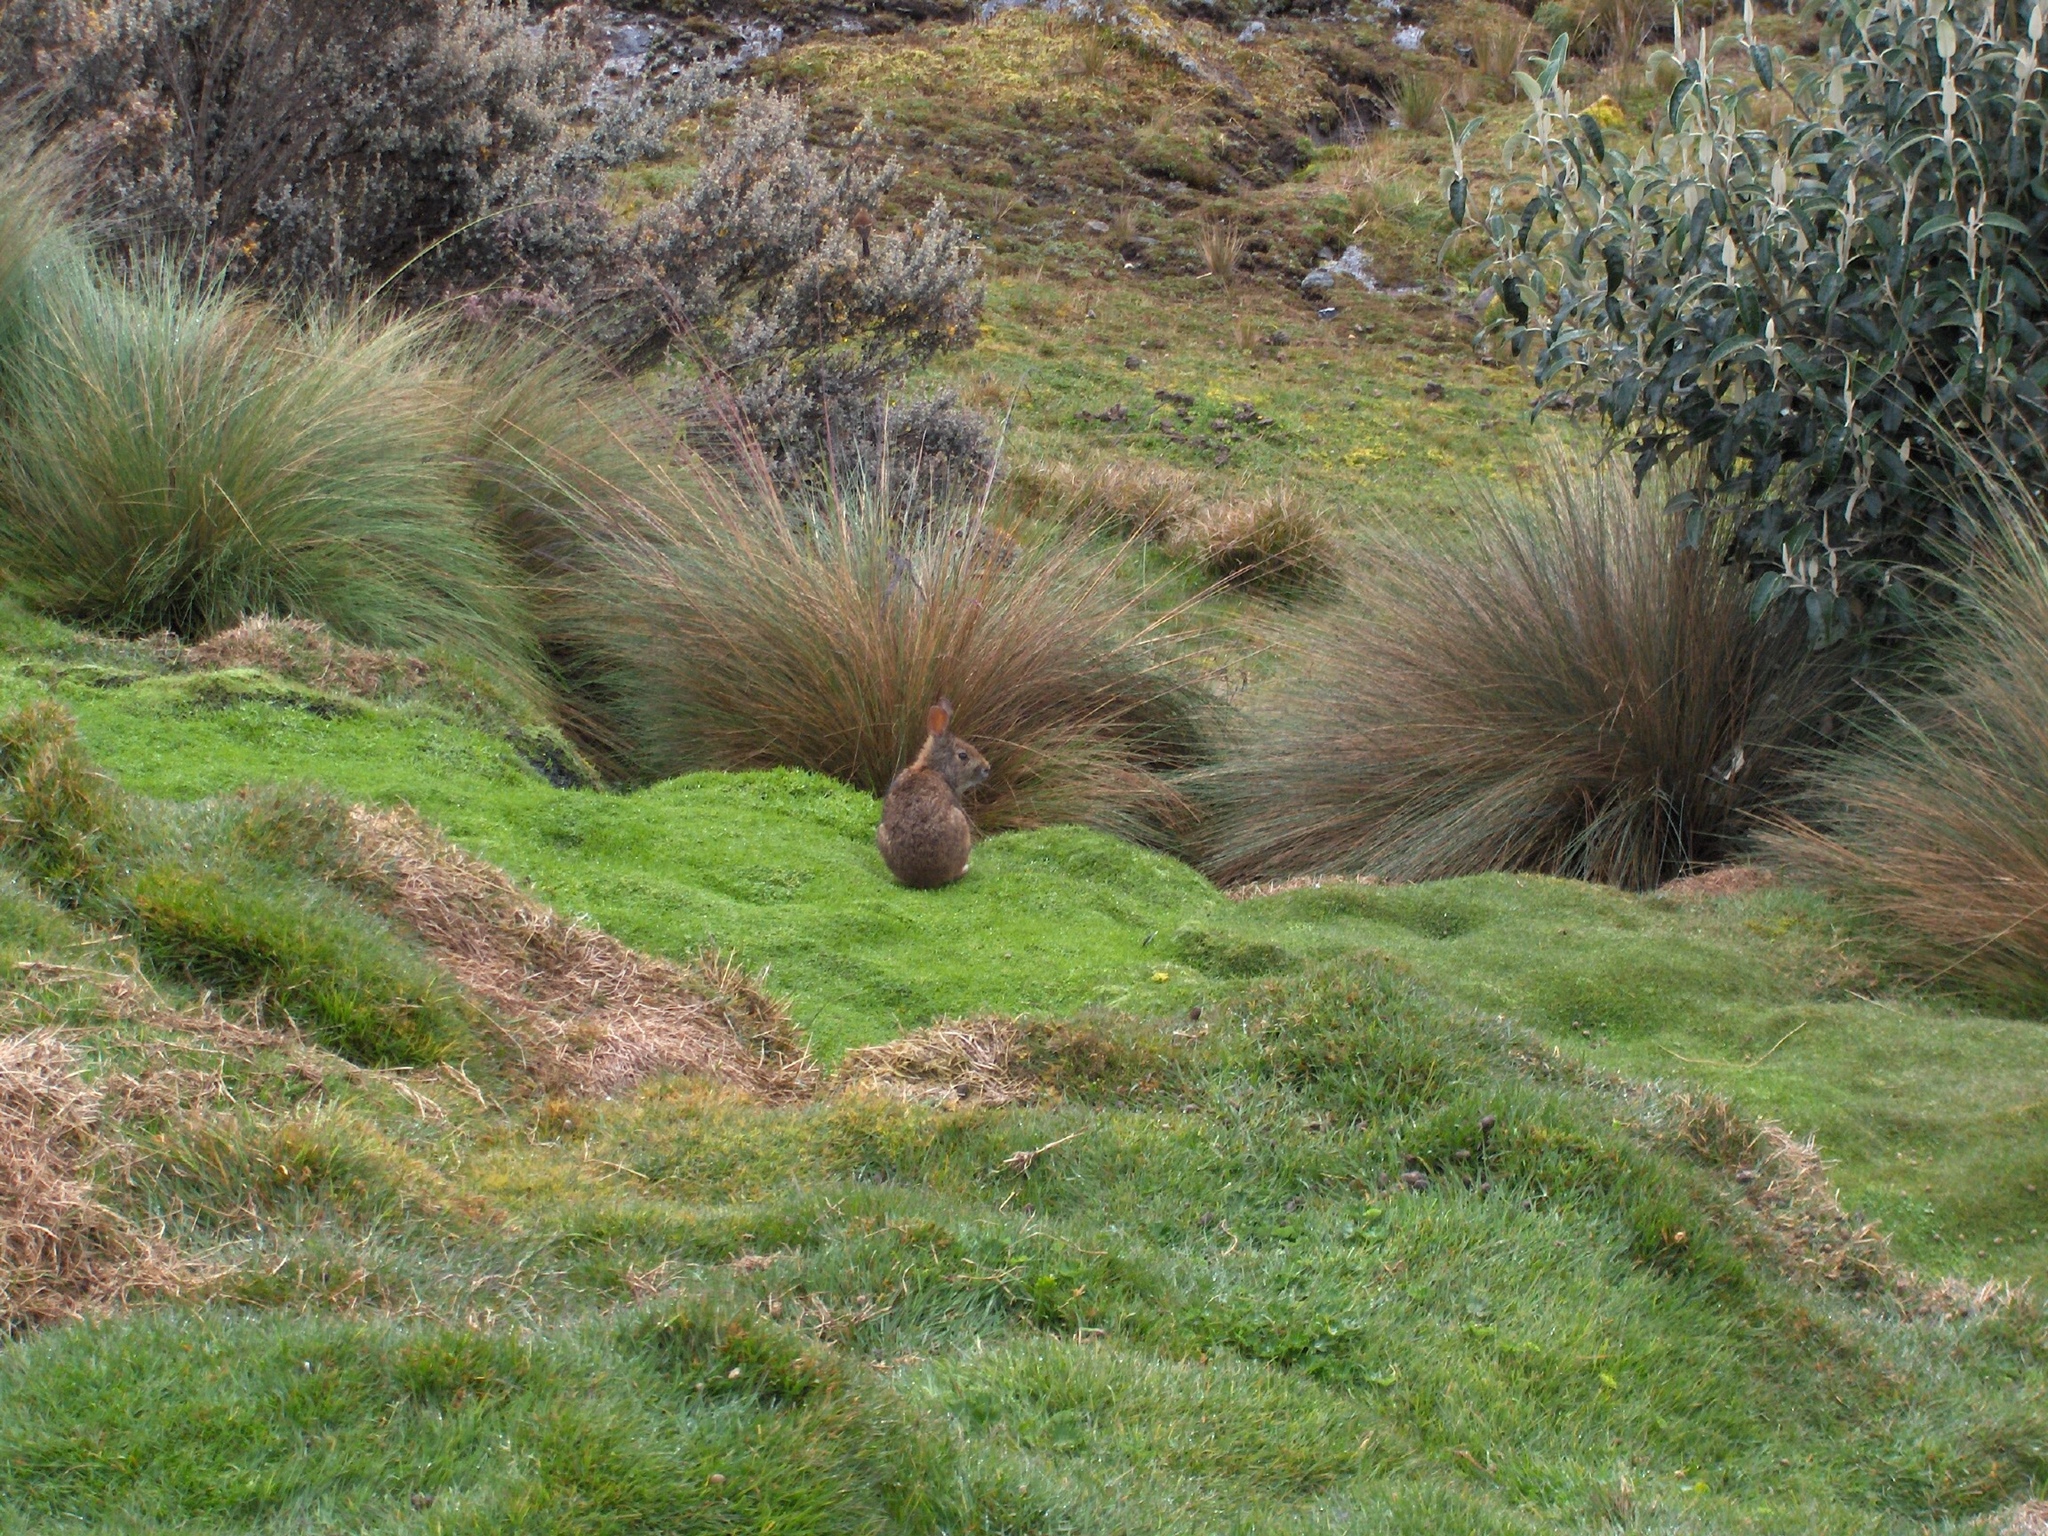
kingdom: Animalia
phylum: Chordata
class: Mammalia
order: Lagomorpha
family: Leporidae
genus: Sylvilagus
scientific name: Sylvilagus andinus
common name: Andean cottontail
